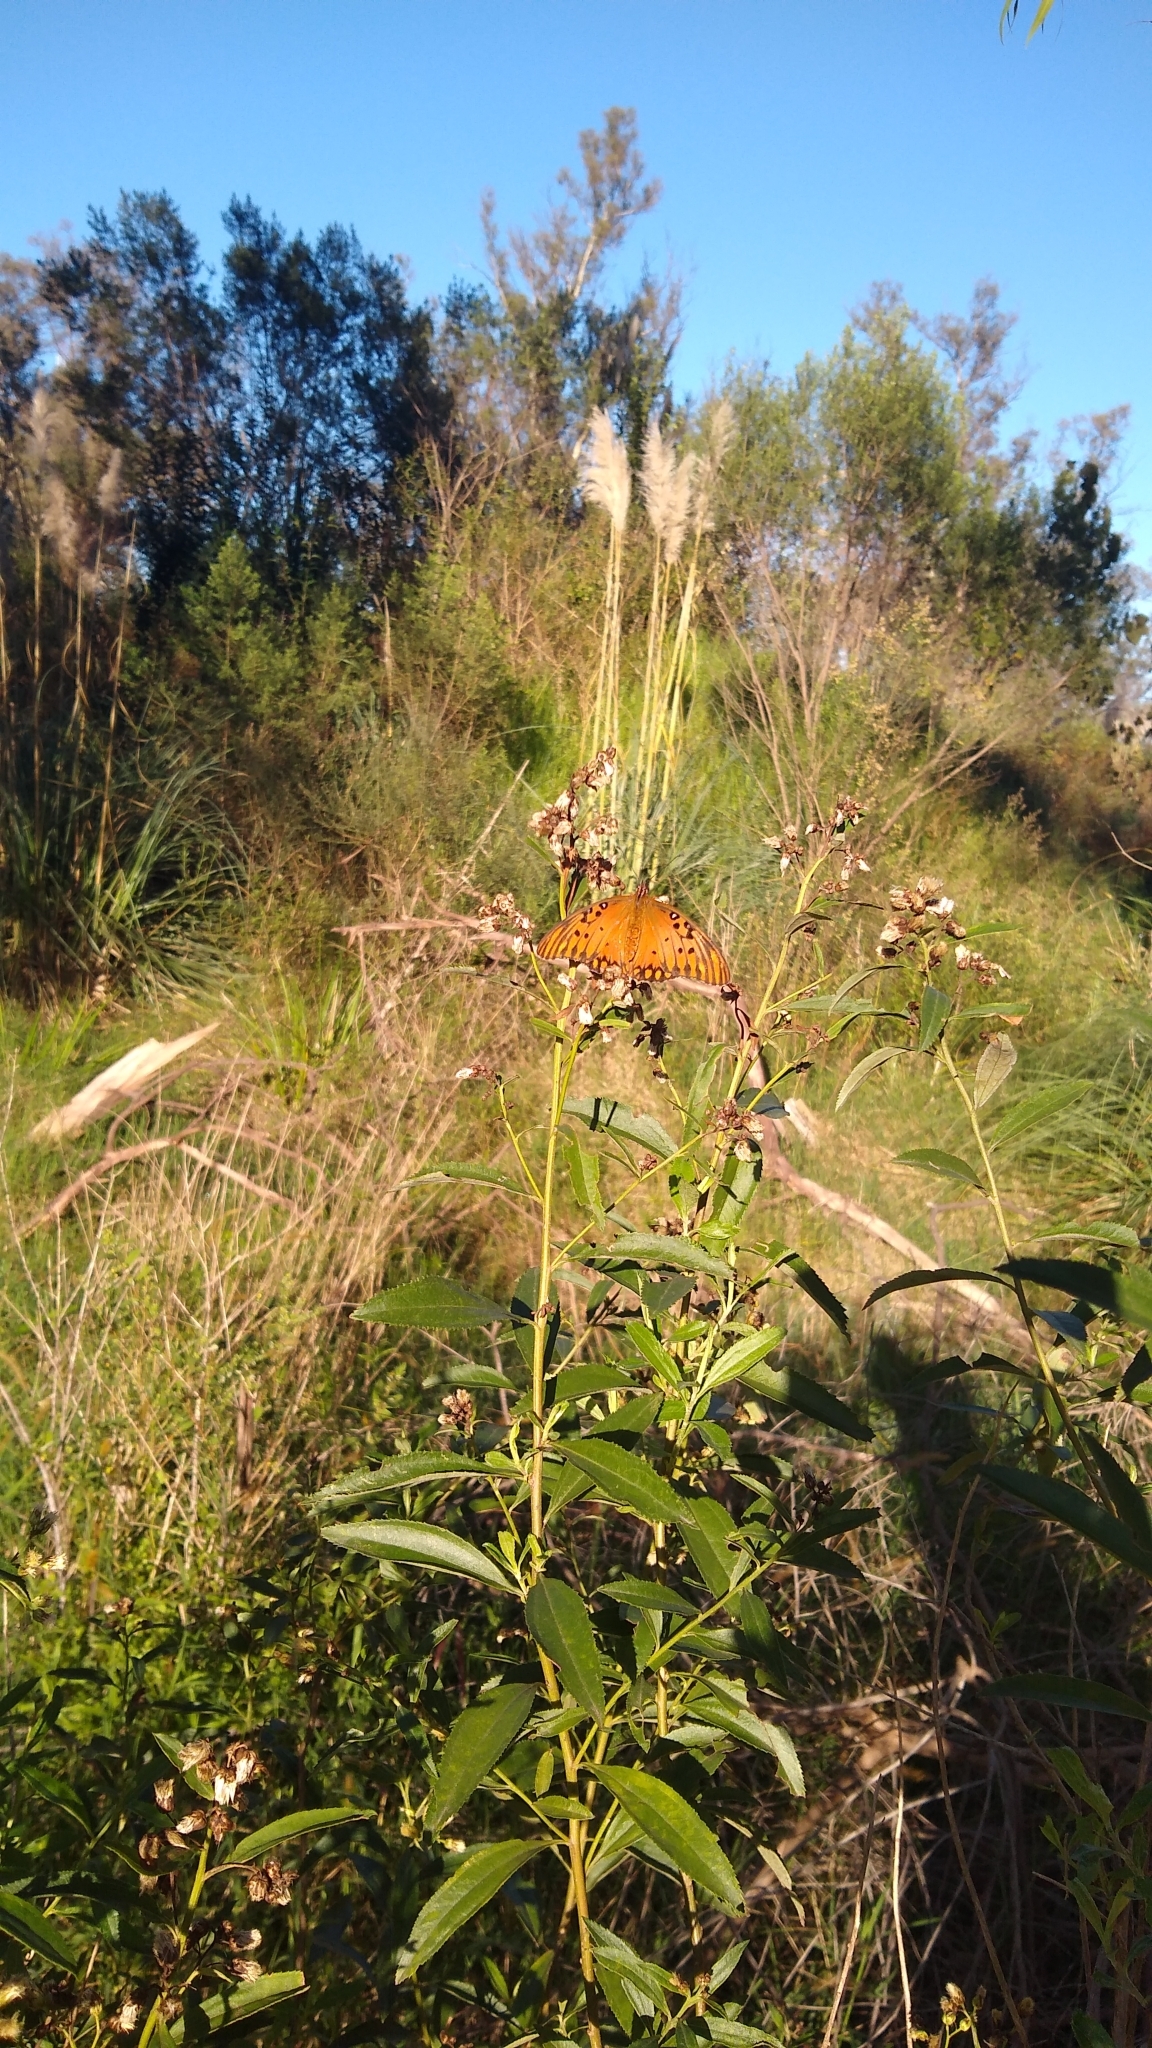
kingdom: Animalia
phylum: Arthropoda
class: Insecta
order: Lepidoptera
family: Nymphalidae
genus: Dione
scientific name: Dione vanillae
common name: Gulf fritillary
